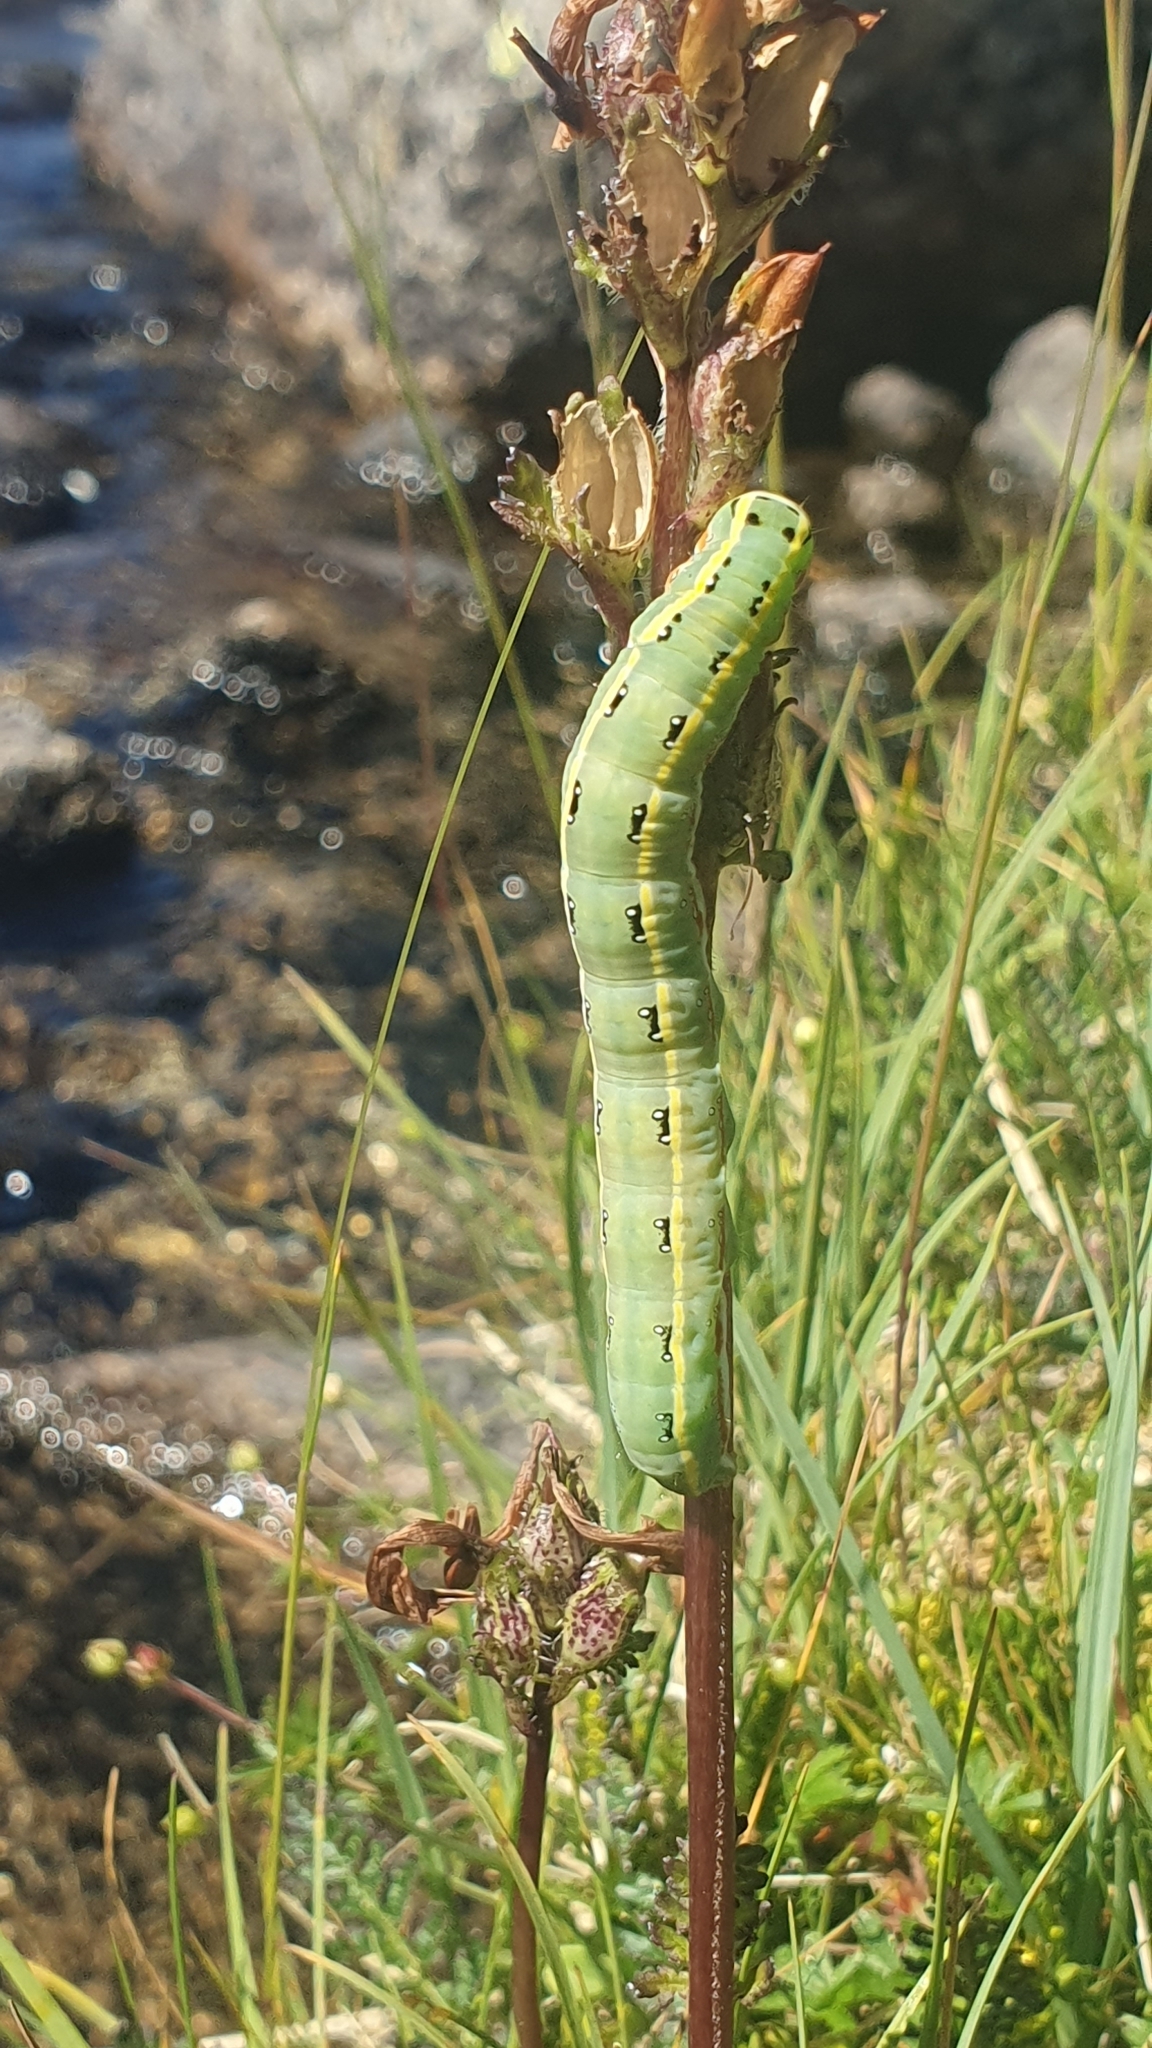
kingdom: Animalia
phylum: Arthropoda
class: Insecta
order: Lepidoptera
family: Noctuidae
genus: Xylena
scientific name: Xylena exsoleta
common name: Sword-grass
